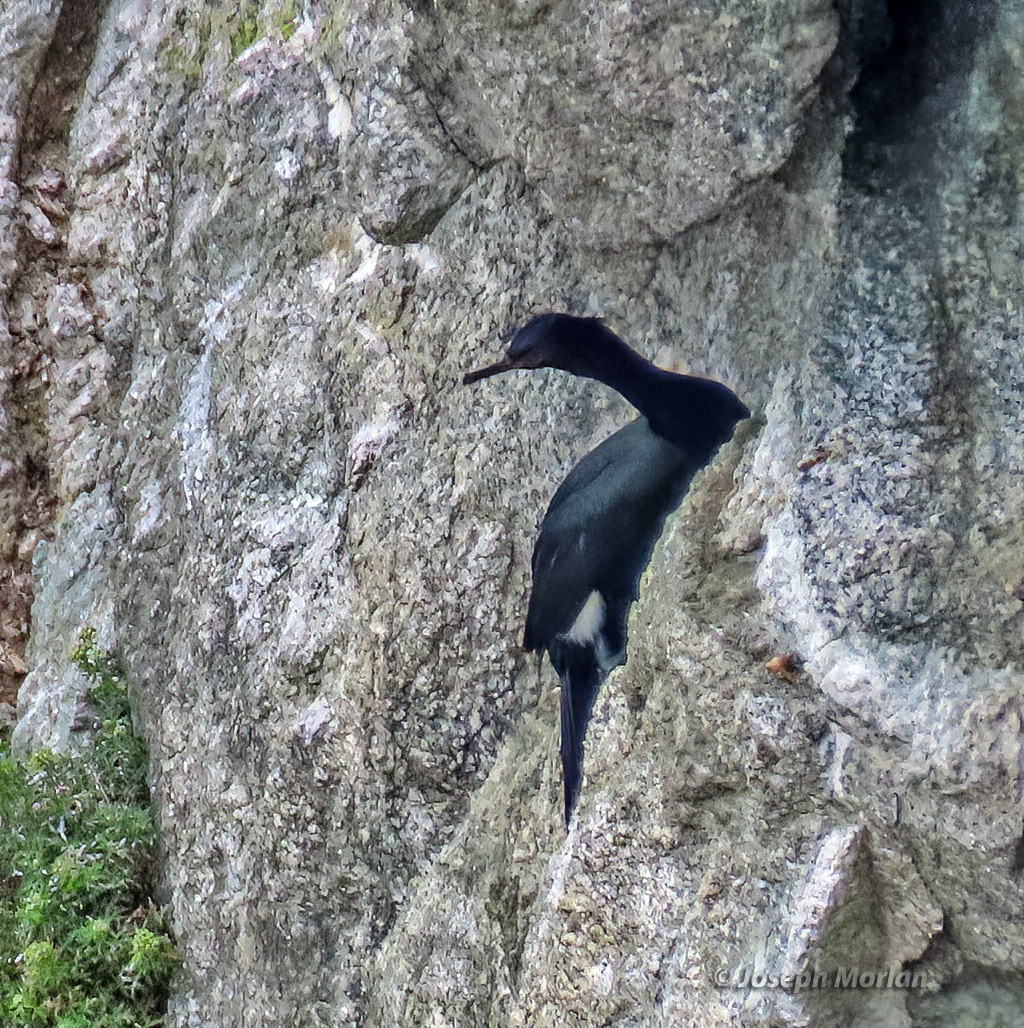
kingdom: Animalia
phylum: Chordata
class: Aves
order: Suliformes
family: Phalacrocoracidae
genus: Phalacrocorax
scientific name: Phalacrocorax pelagicus
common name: Pelagic cormorant
